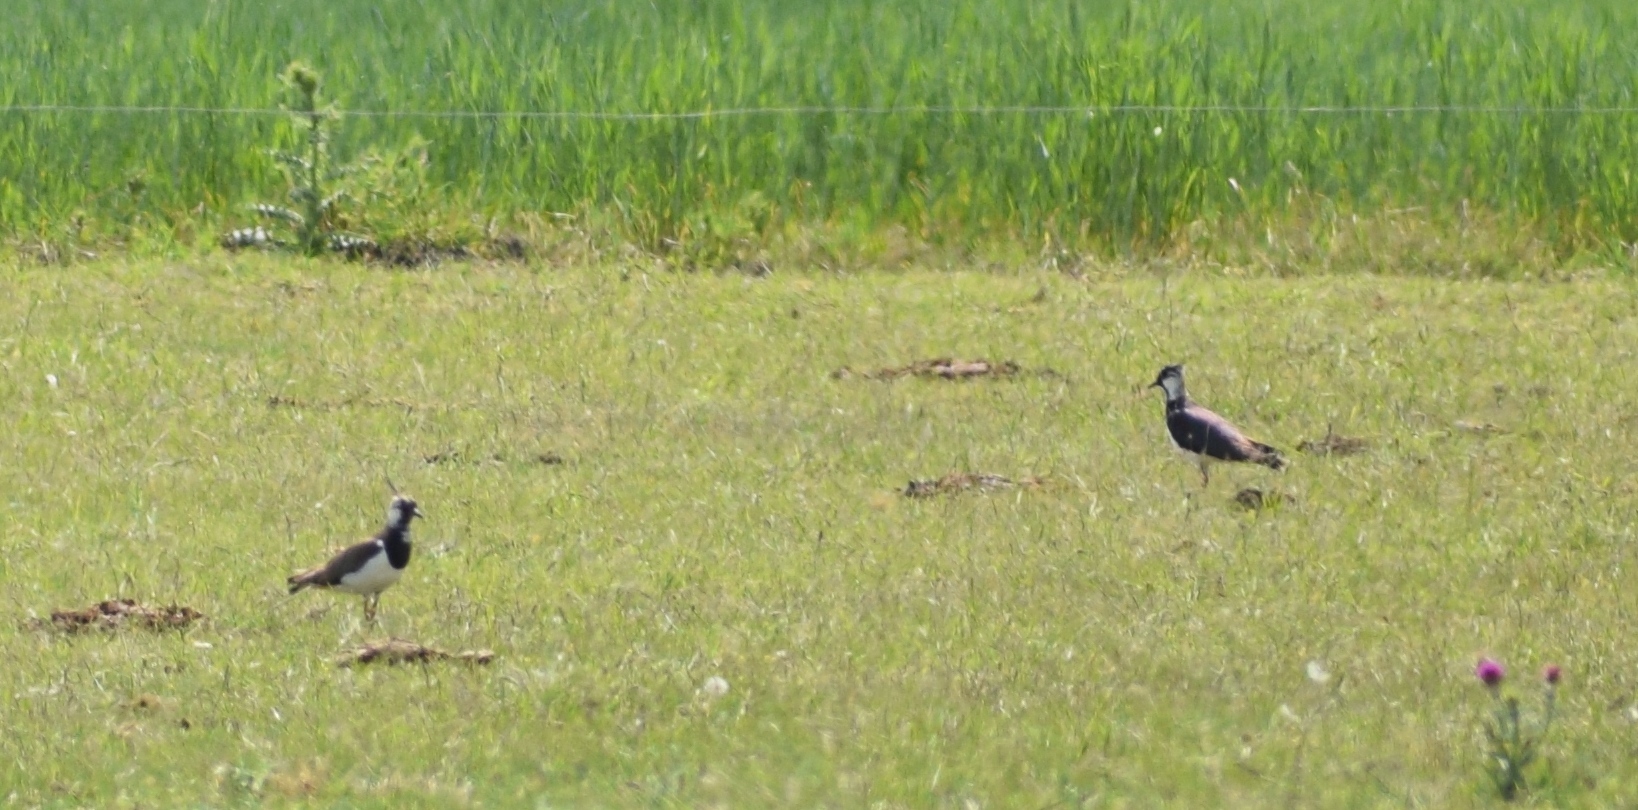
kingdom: Animalia
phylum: Chordata
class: Aves
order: Charadriiformes
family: Charadriidae
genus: Vanellus
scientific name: Vanellus vanellus
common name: Northern lapwing
